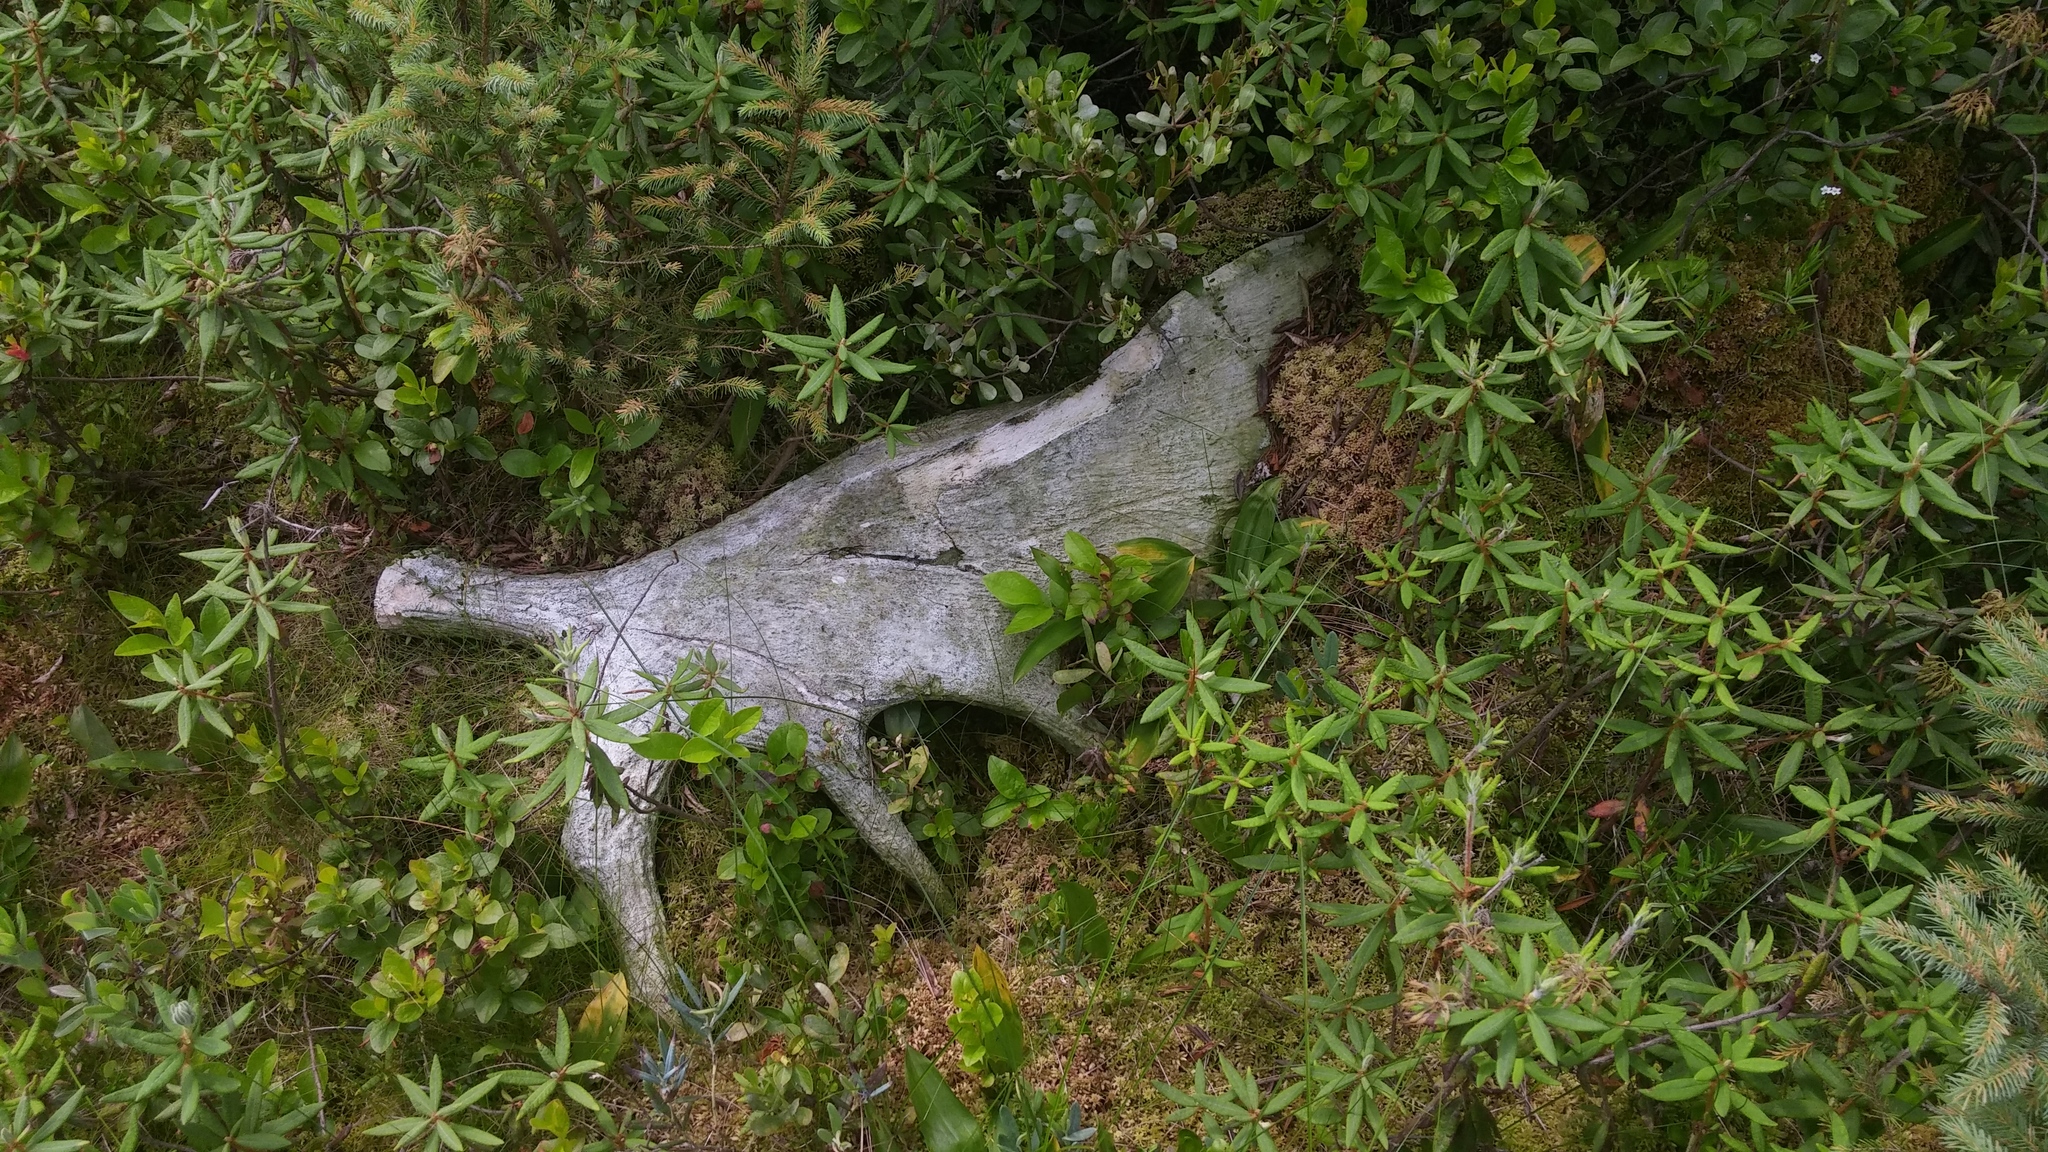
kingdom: Animalia
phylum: Chordata
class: Mammalia
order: Artiodactyla
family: Cervidae
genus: Alces
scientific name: Alces alces
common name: Moose
